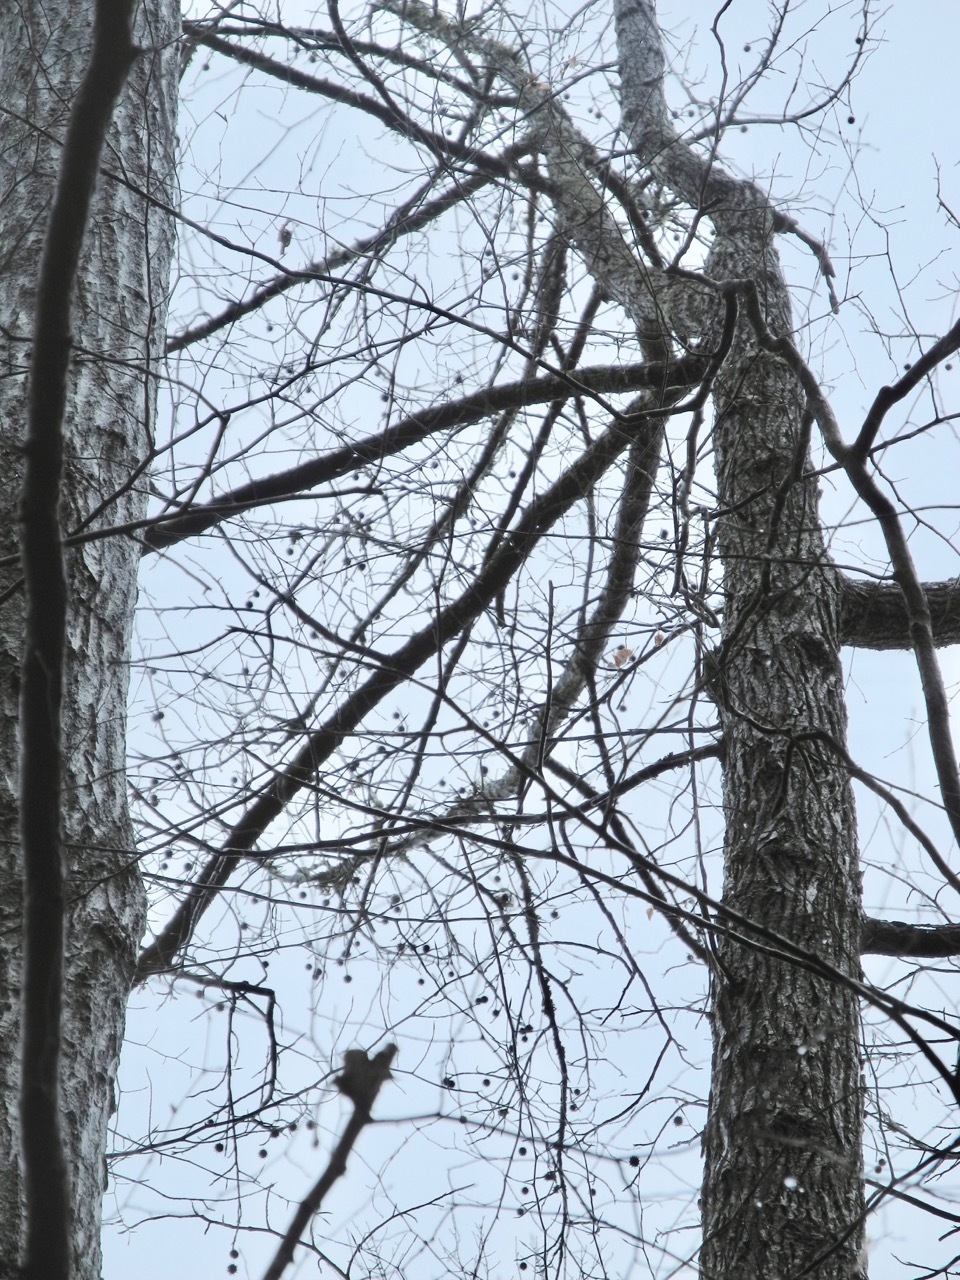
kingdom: Plantae
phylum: Tracheophyta
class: Magnoliopsida
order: Saxifragales
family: Altingiaceae
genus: Liquidambar
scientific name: Liquidambar styraciflua
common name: Sweet gum
